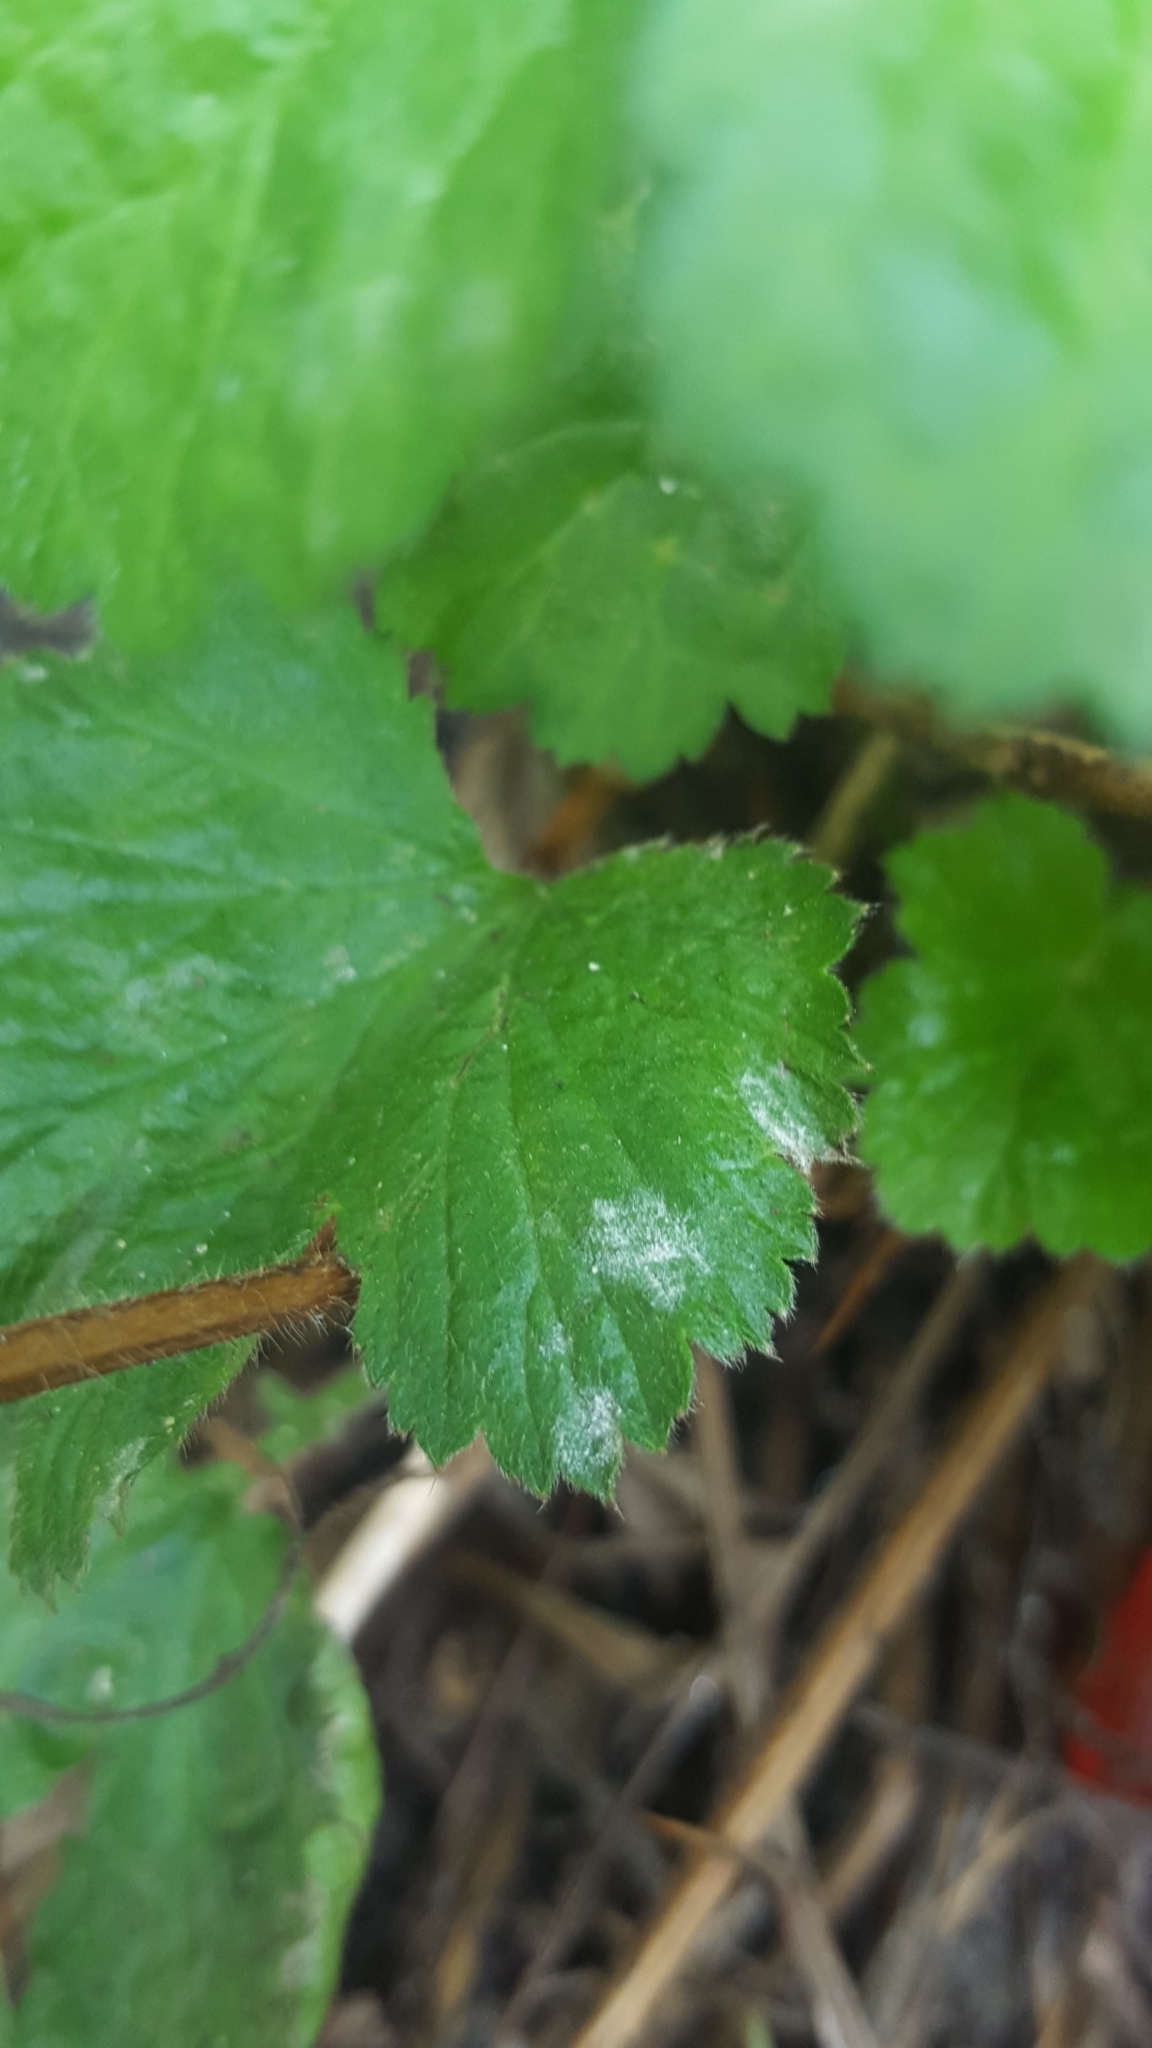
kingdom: Fungi
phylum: Ascomycota
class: Leotiomycetes
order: Helotiales
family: Erysiphaceae
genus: Podosphaera
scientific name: Podosphaera aphanis
